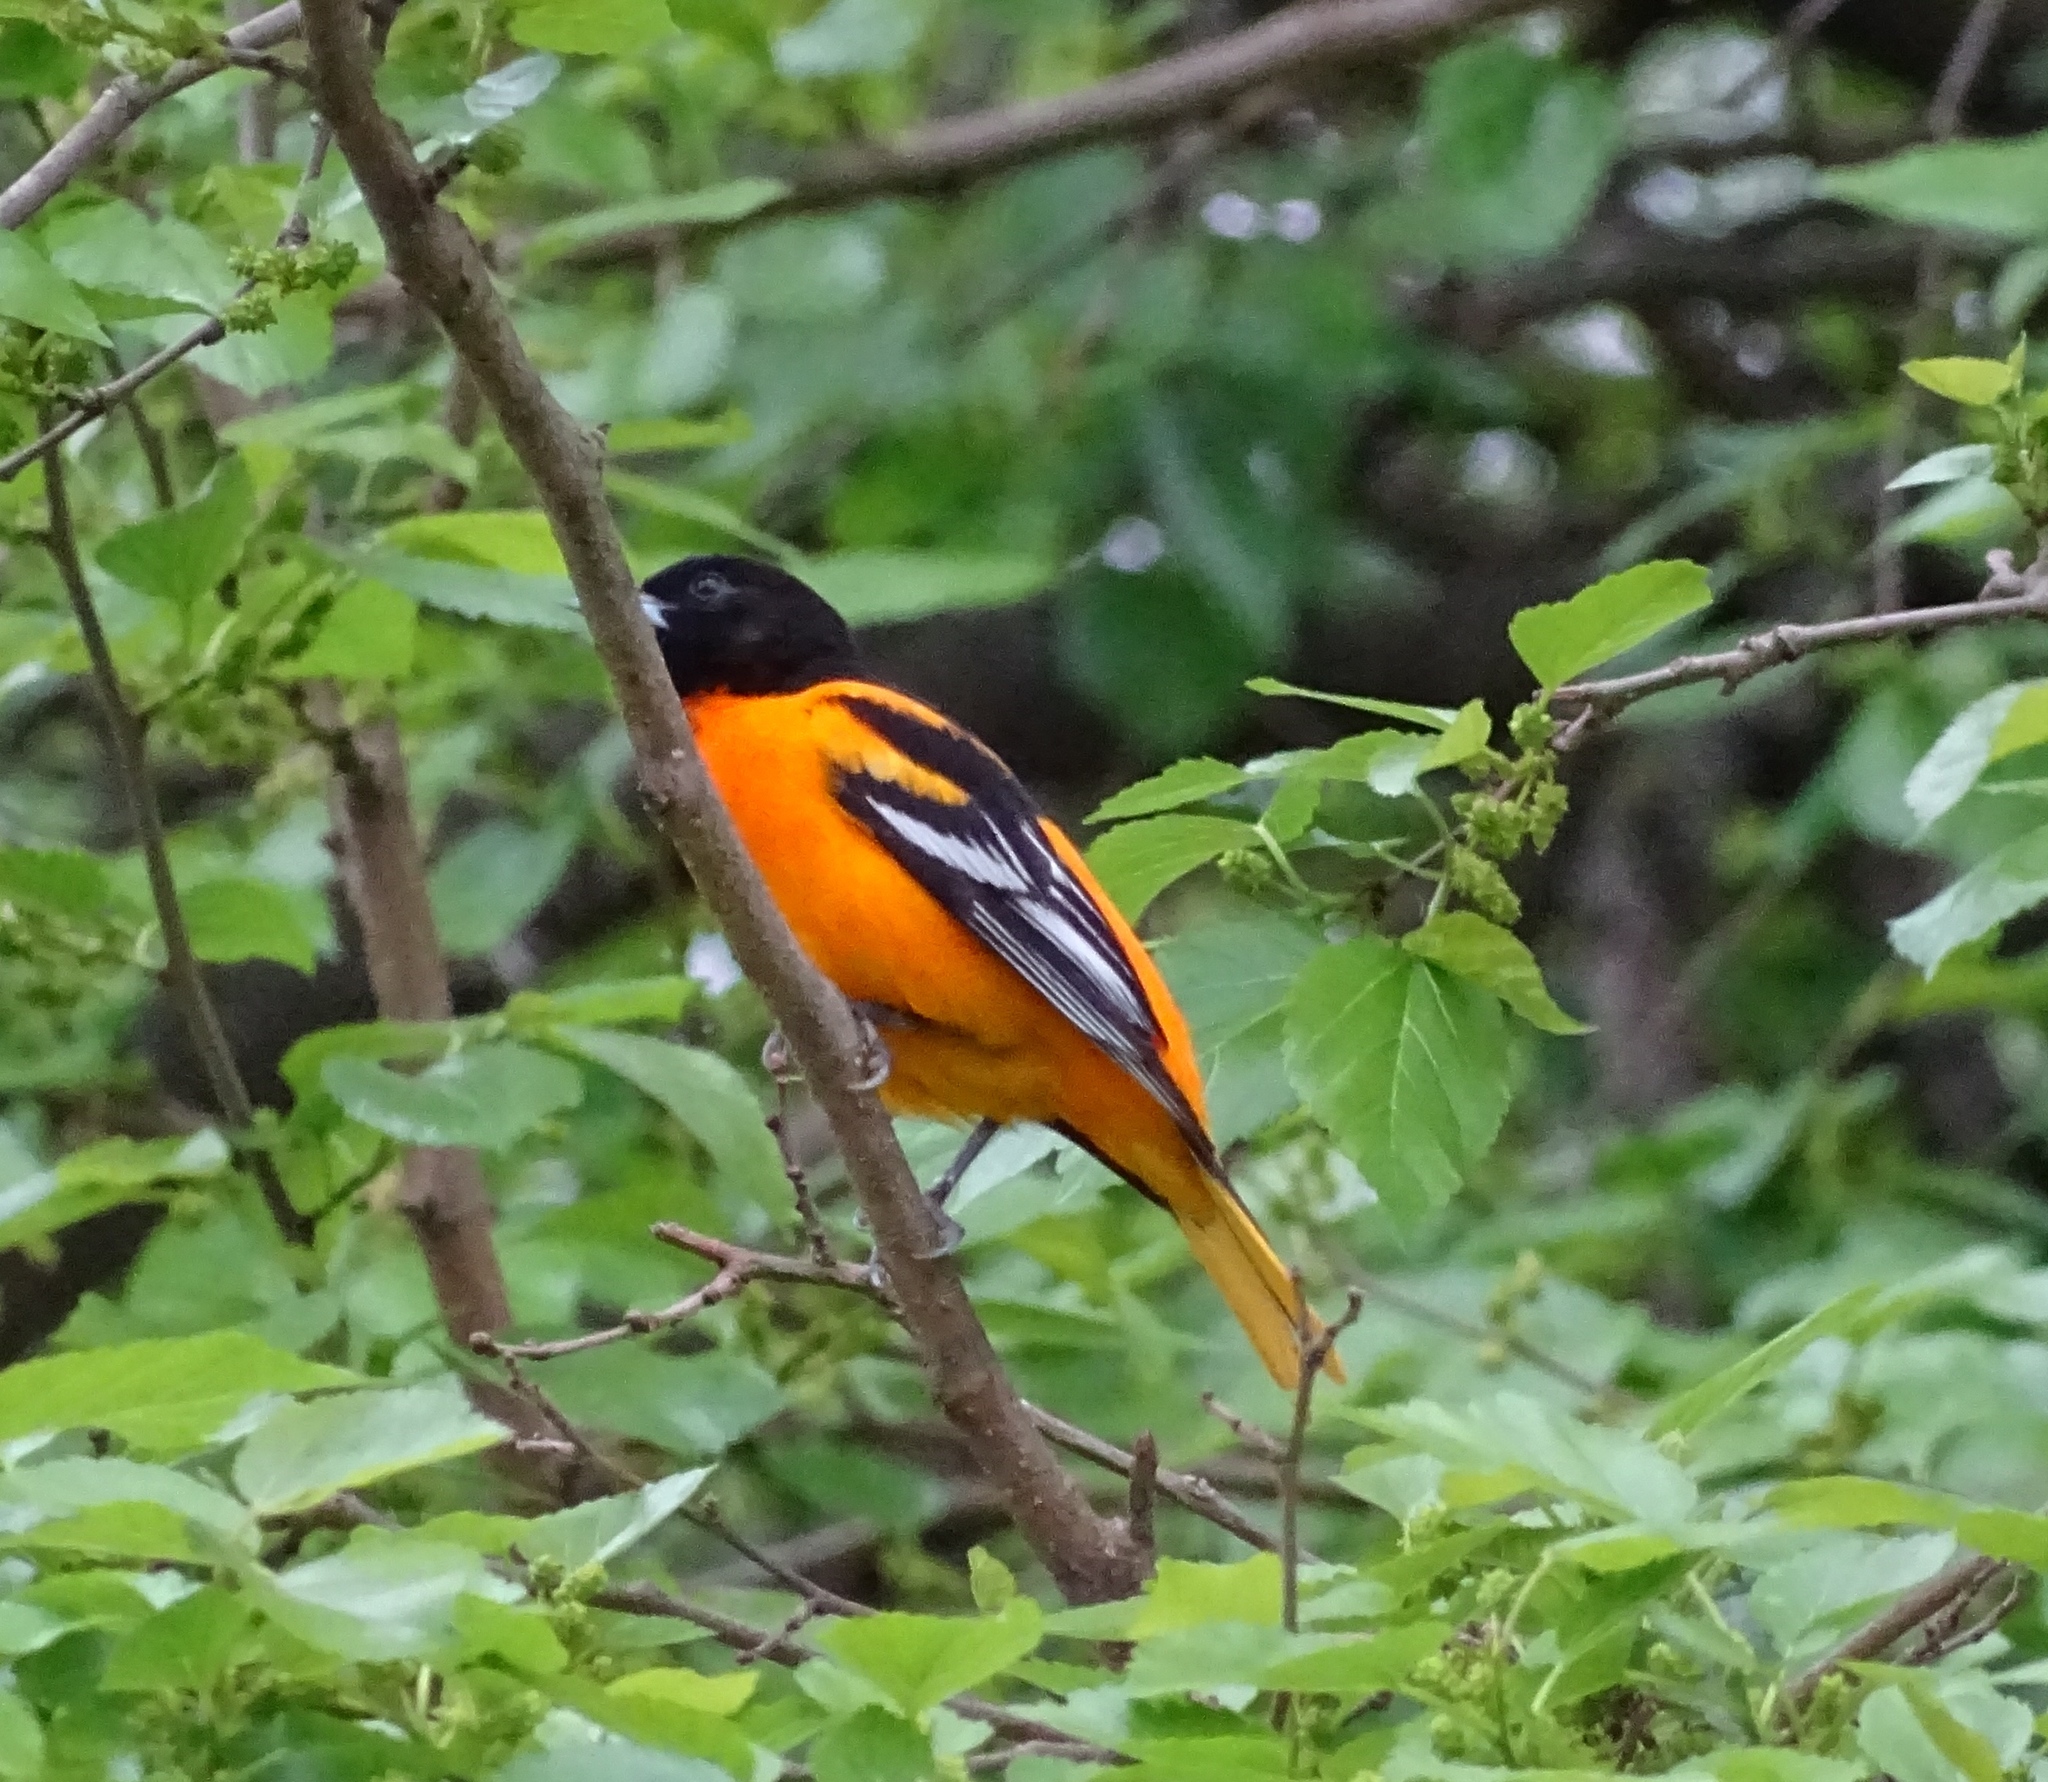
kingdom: Animalia
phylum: Chordata
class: Aves
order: Passeriformes
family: Icteridae
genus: Icterus
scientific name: Icterus galbula
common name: Baltimore oriole
